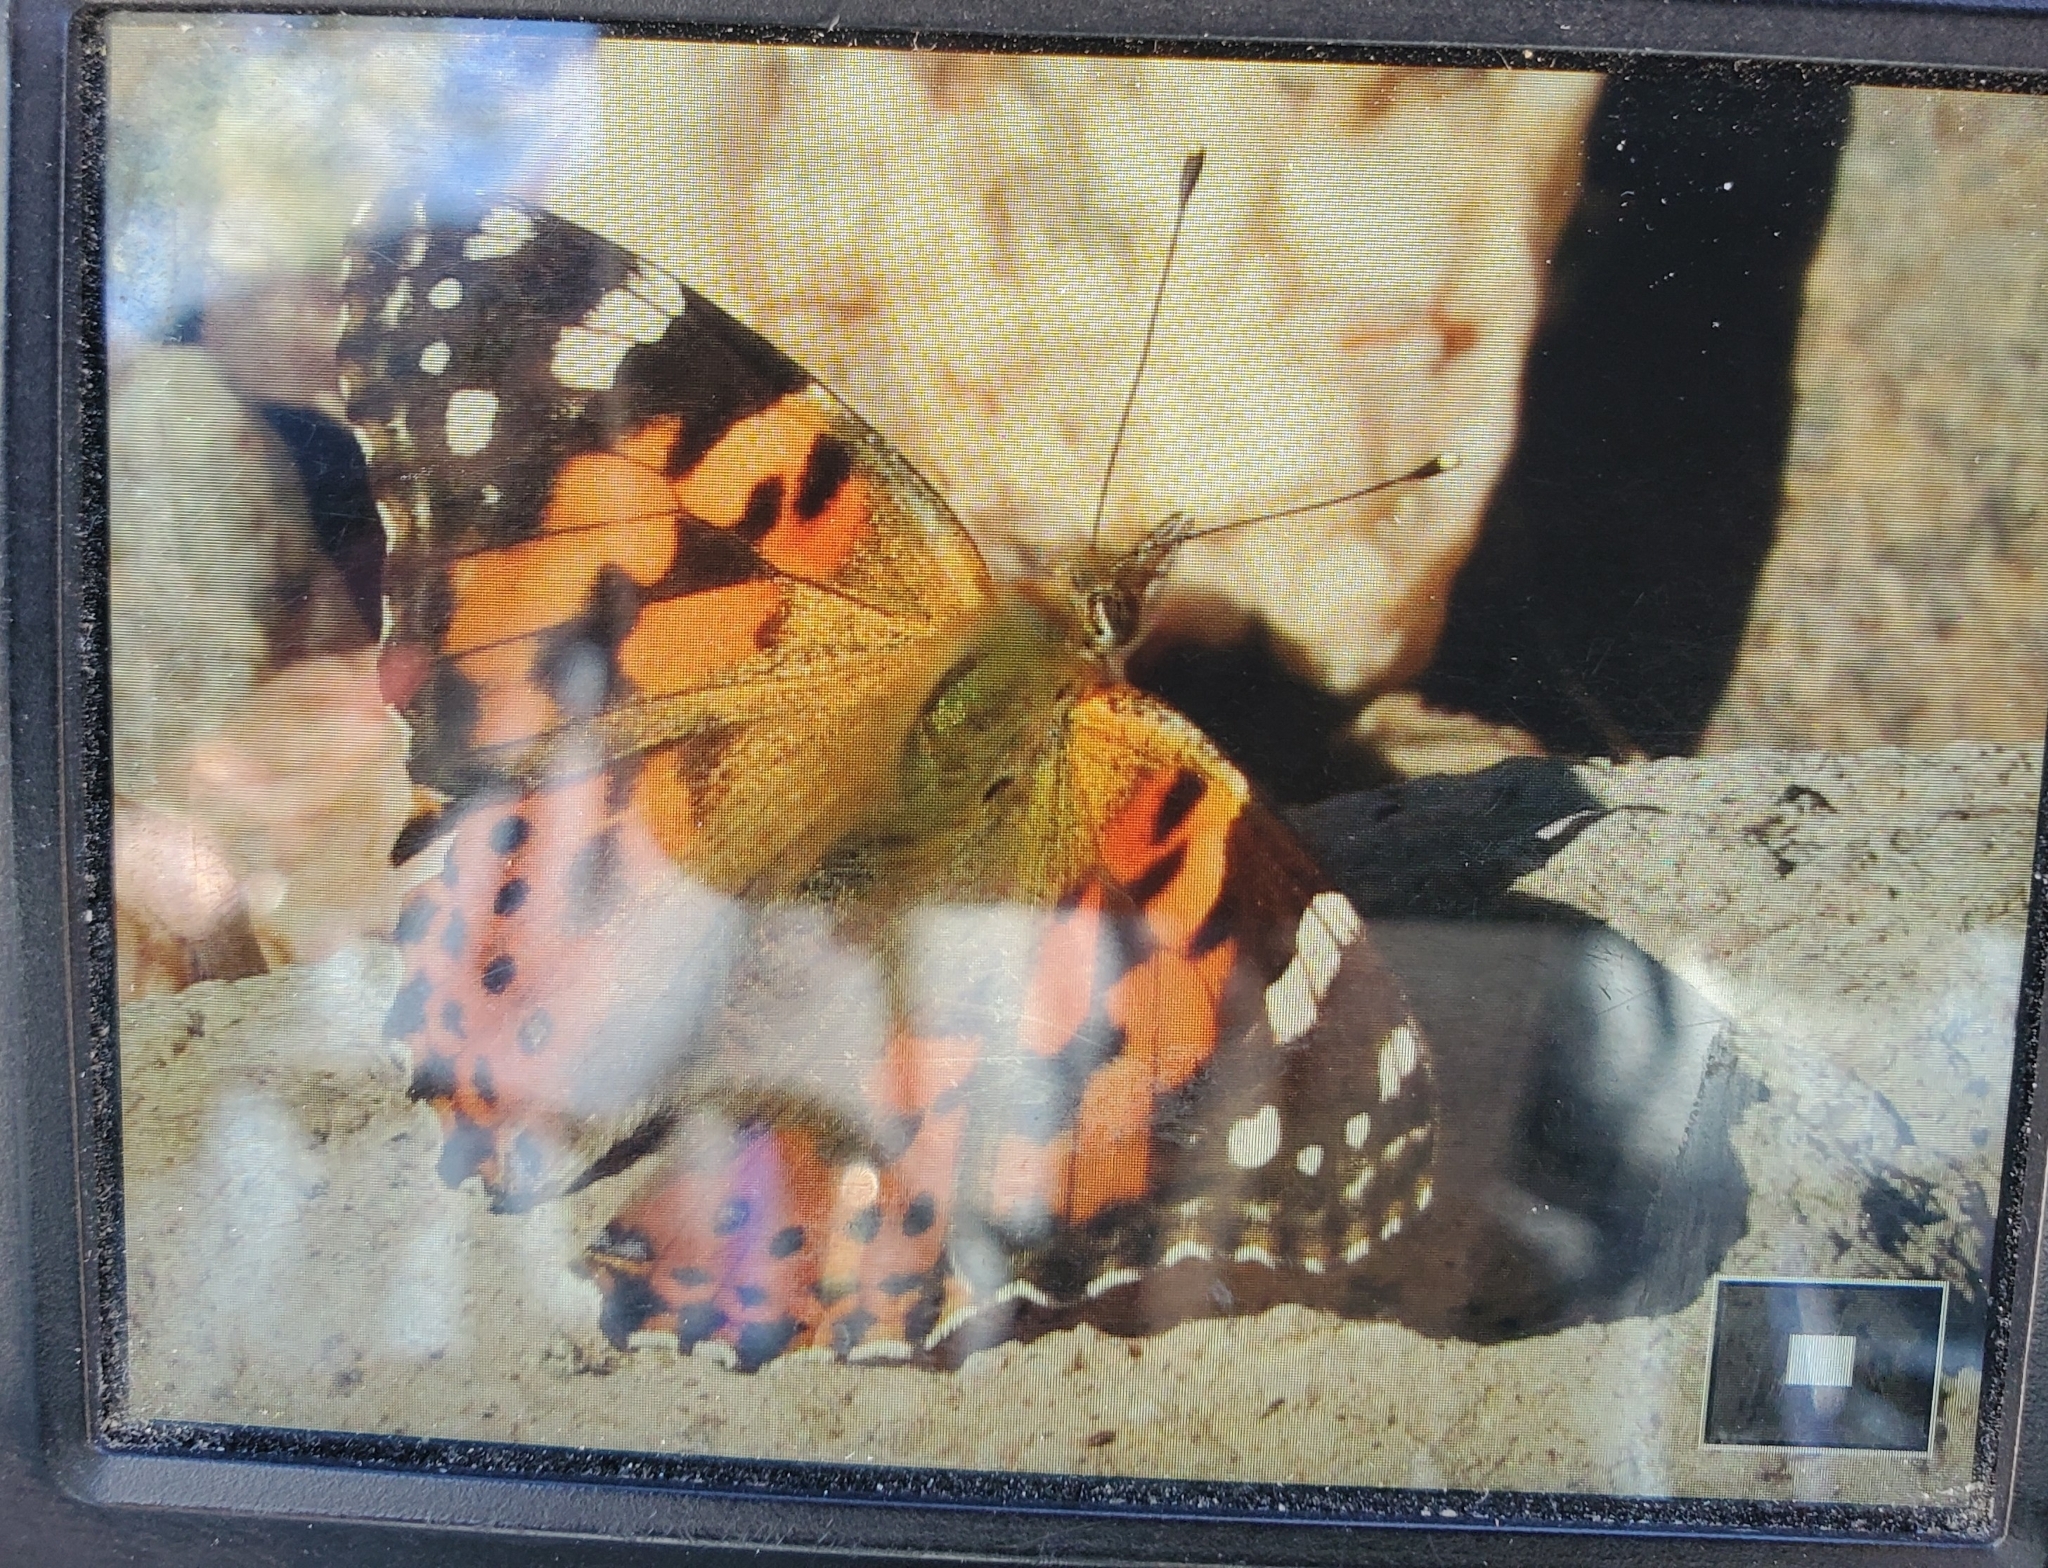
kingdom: Animalia
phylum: Arthropoda
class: Insecta
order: Lepidoptera
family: Nymphalidae
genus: Vanessa
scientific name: Vanessa cardui
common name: Painted lady
